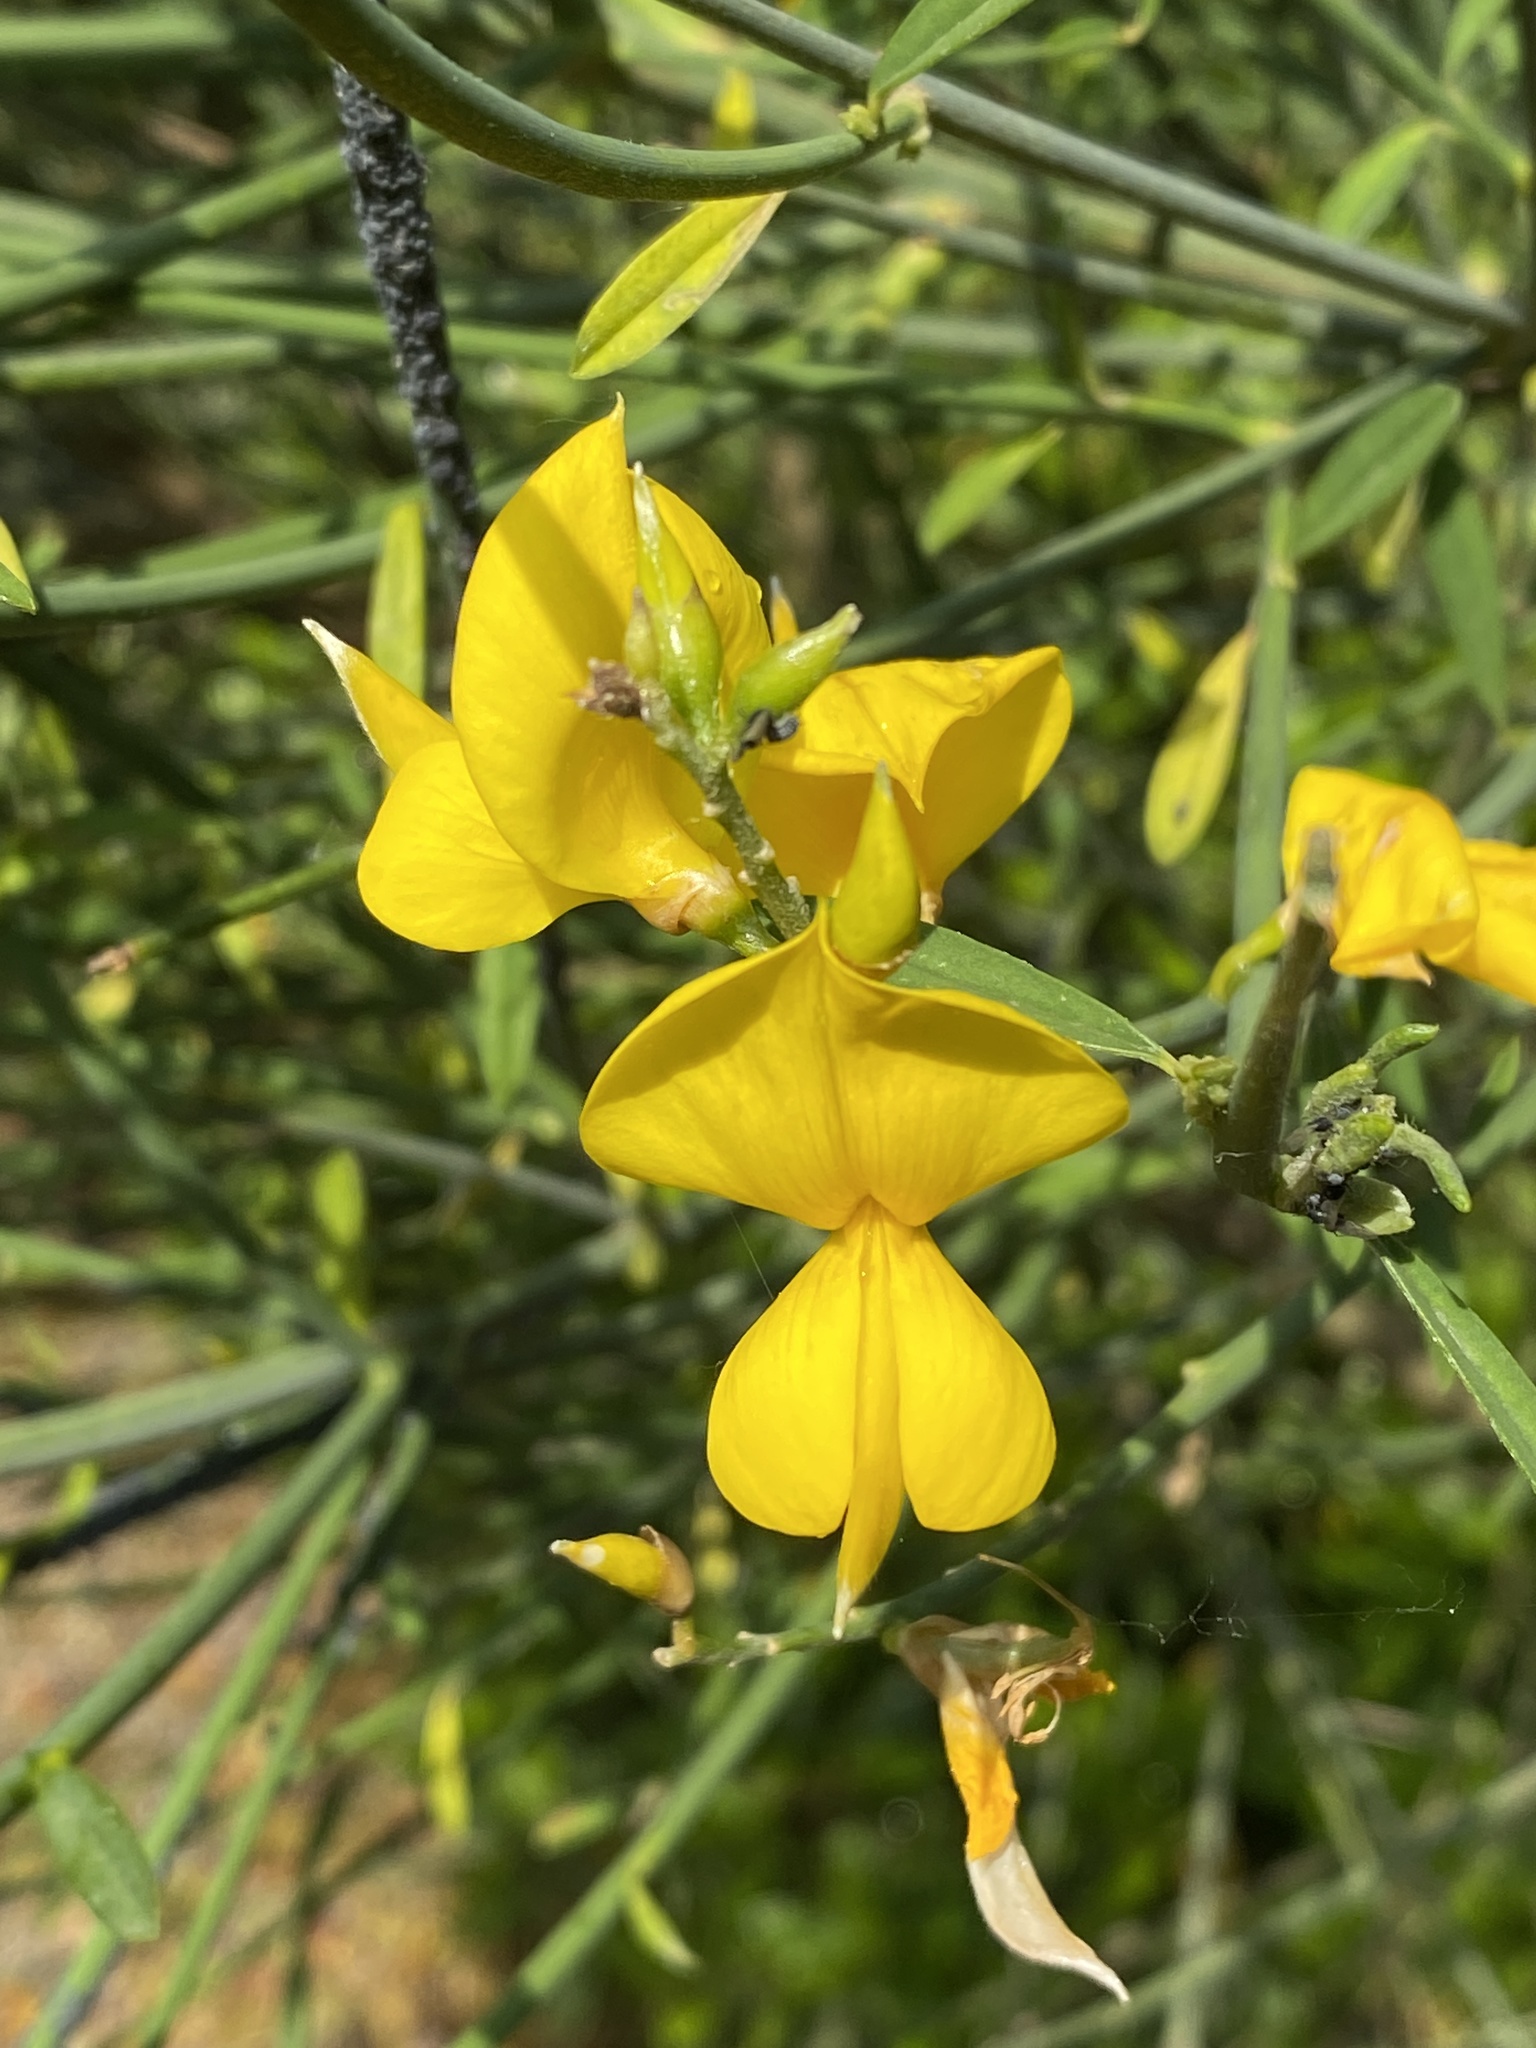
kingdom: Plantae
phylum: Tracheophyta
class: Magnoliopsida
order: Fabales
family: Fabaceae
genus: Spartium
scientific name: Spartium junceum
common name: Spanish broom
